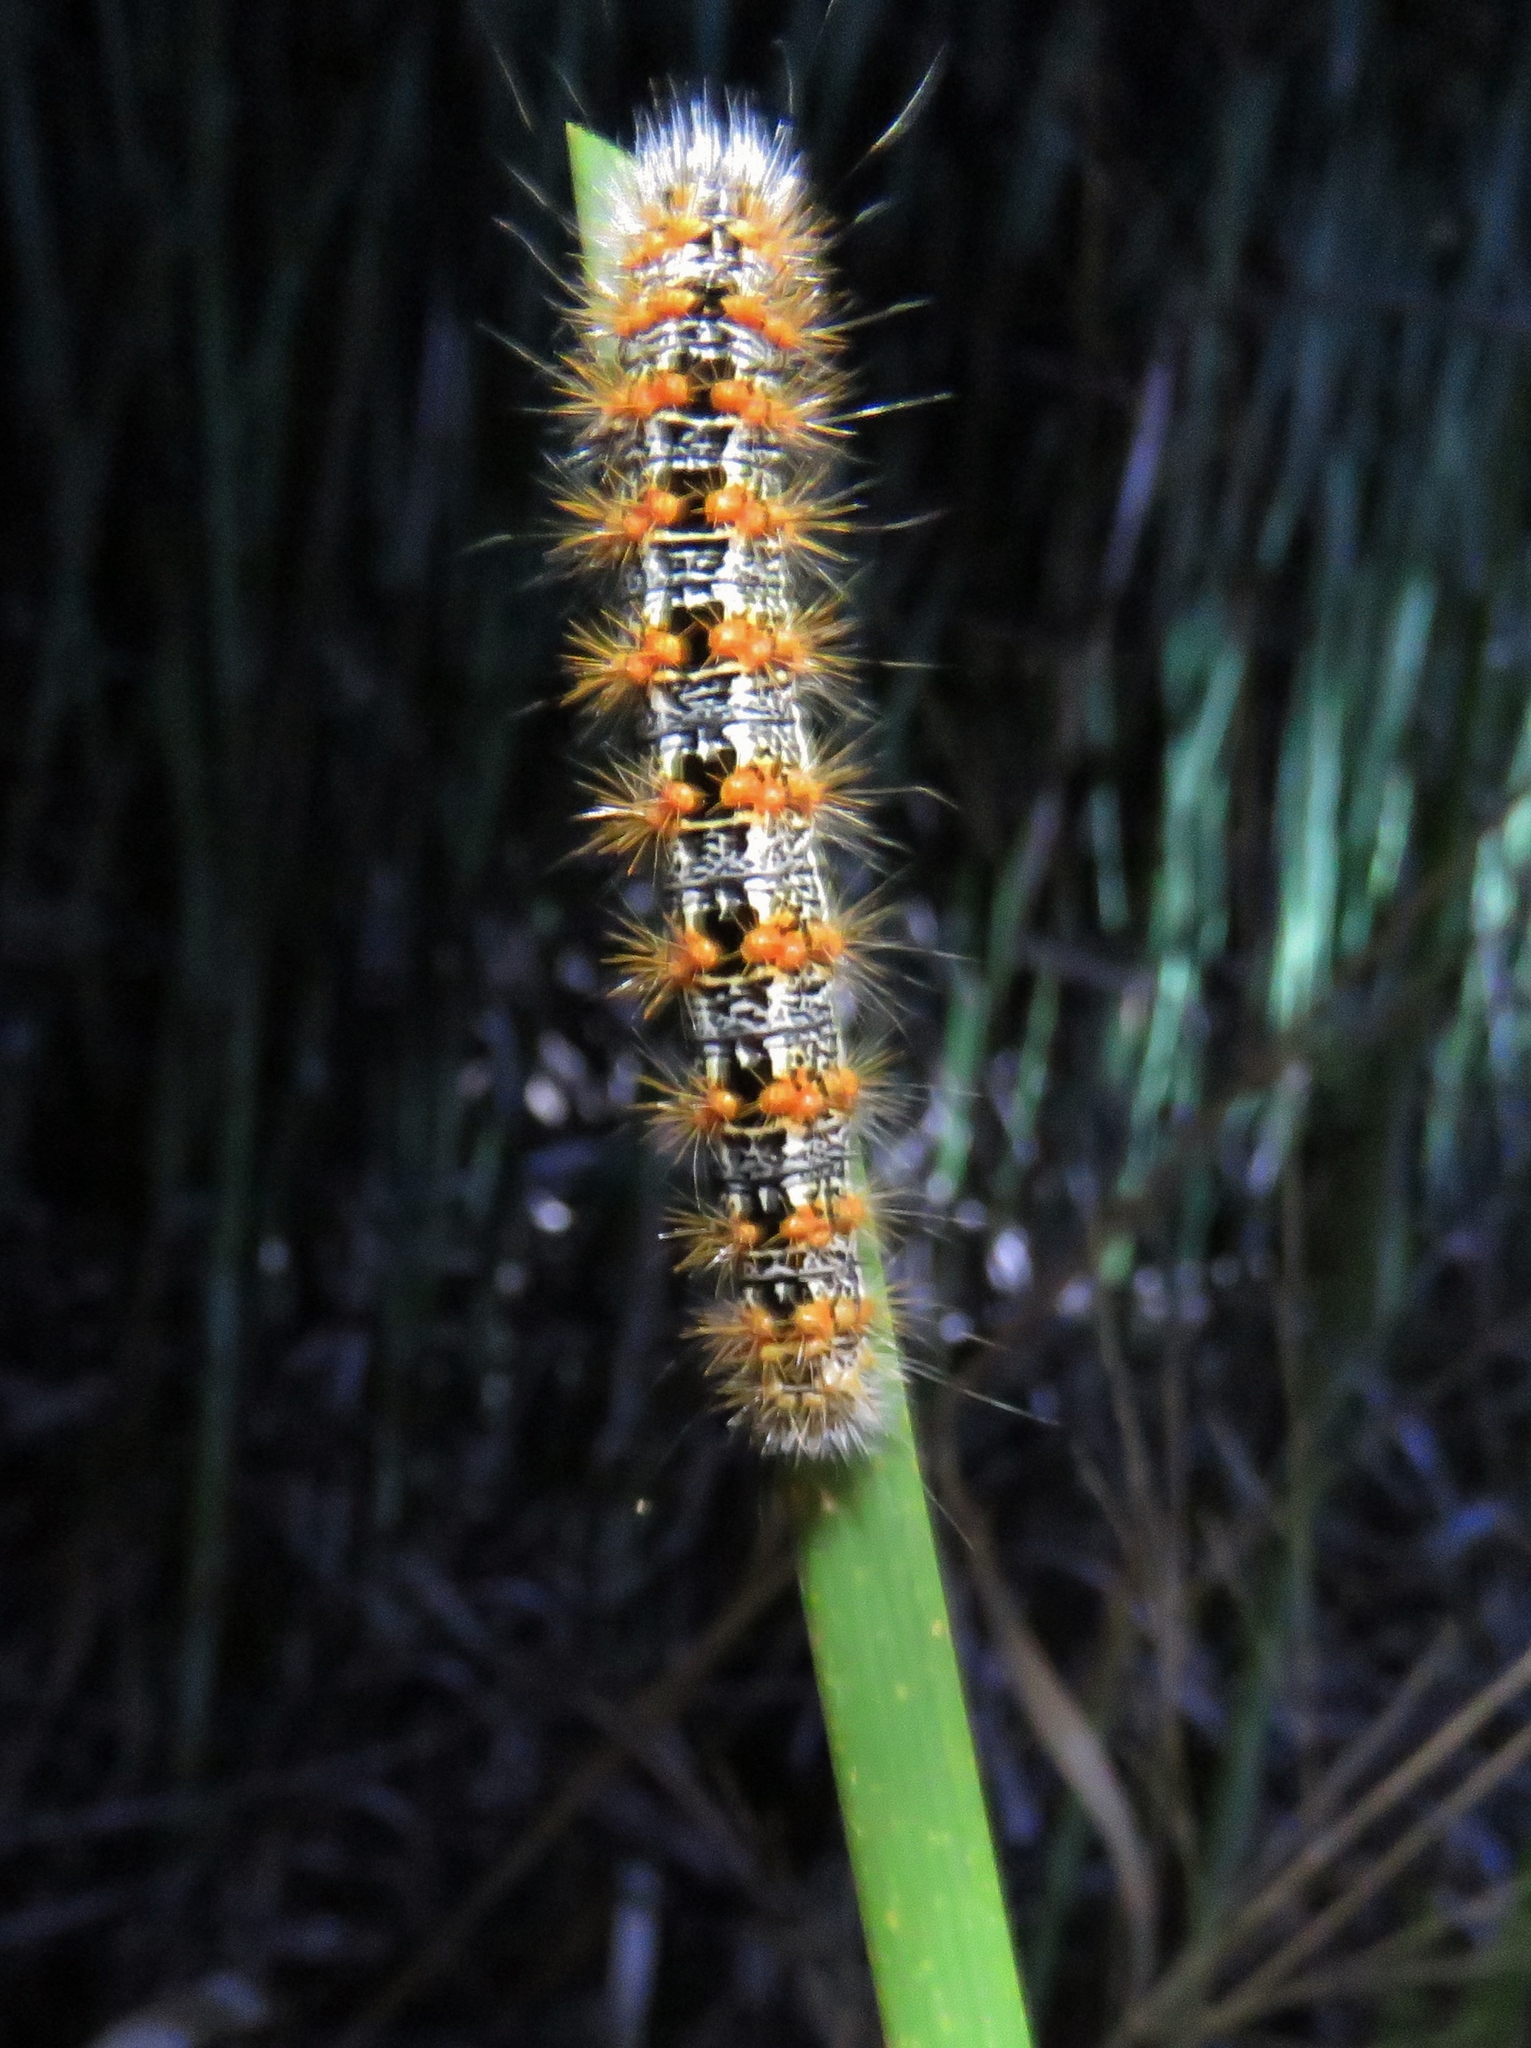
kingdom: Animalia
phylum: Arthropoda
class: Insecta
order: Lepidoptera
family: Noctuidae
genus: Acronicta
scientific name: Acronicta insularis
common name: Henry's marsh moth
